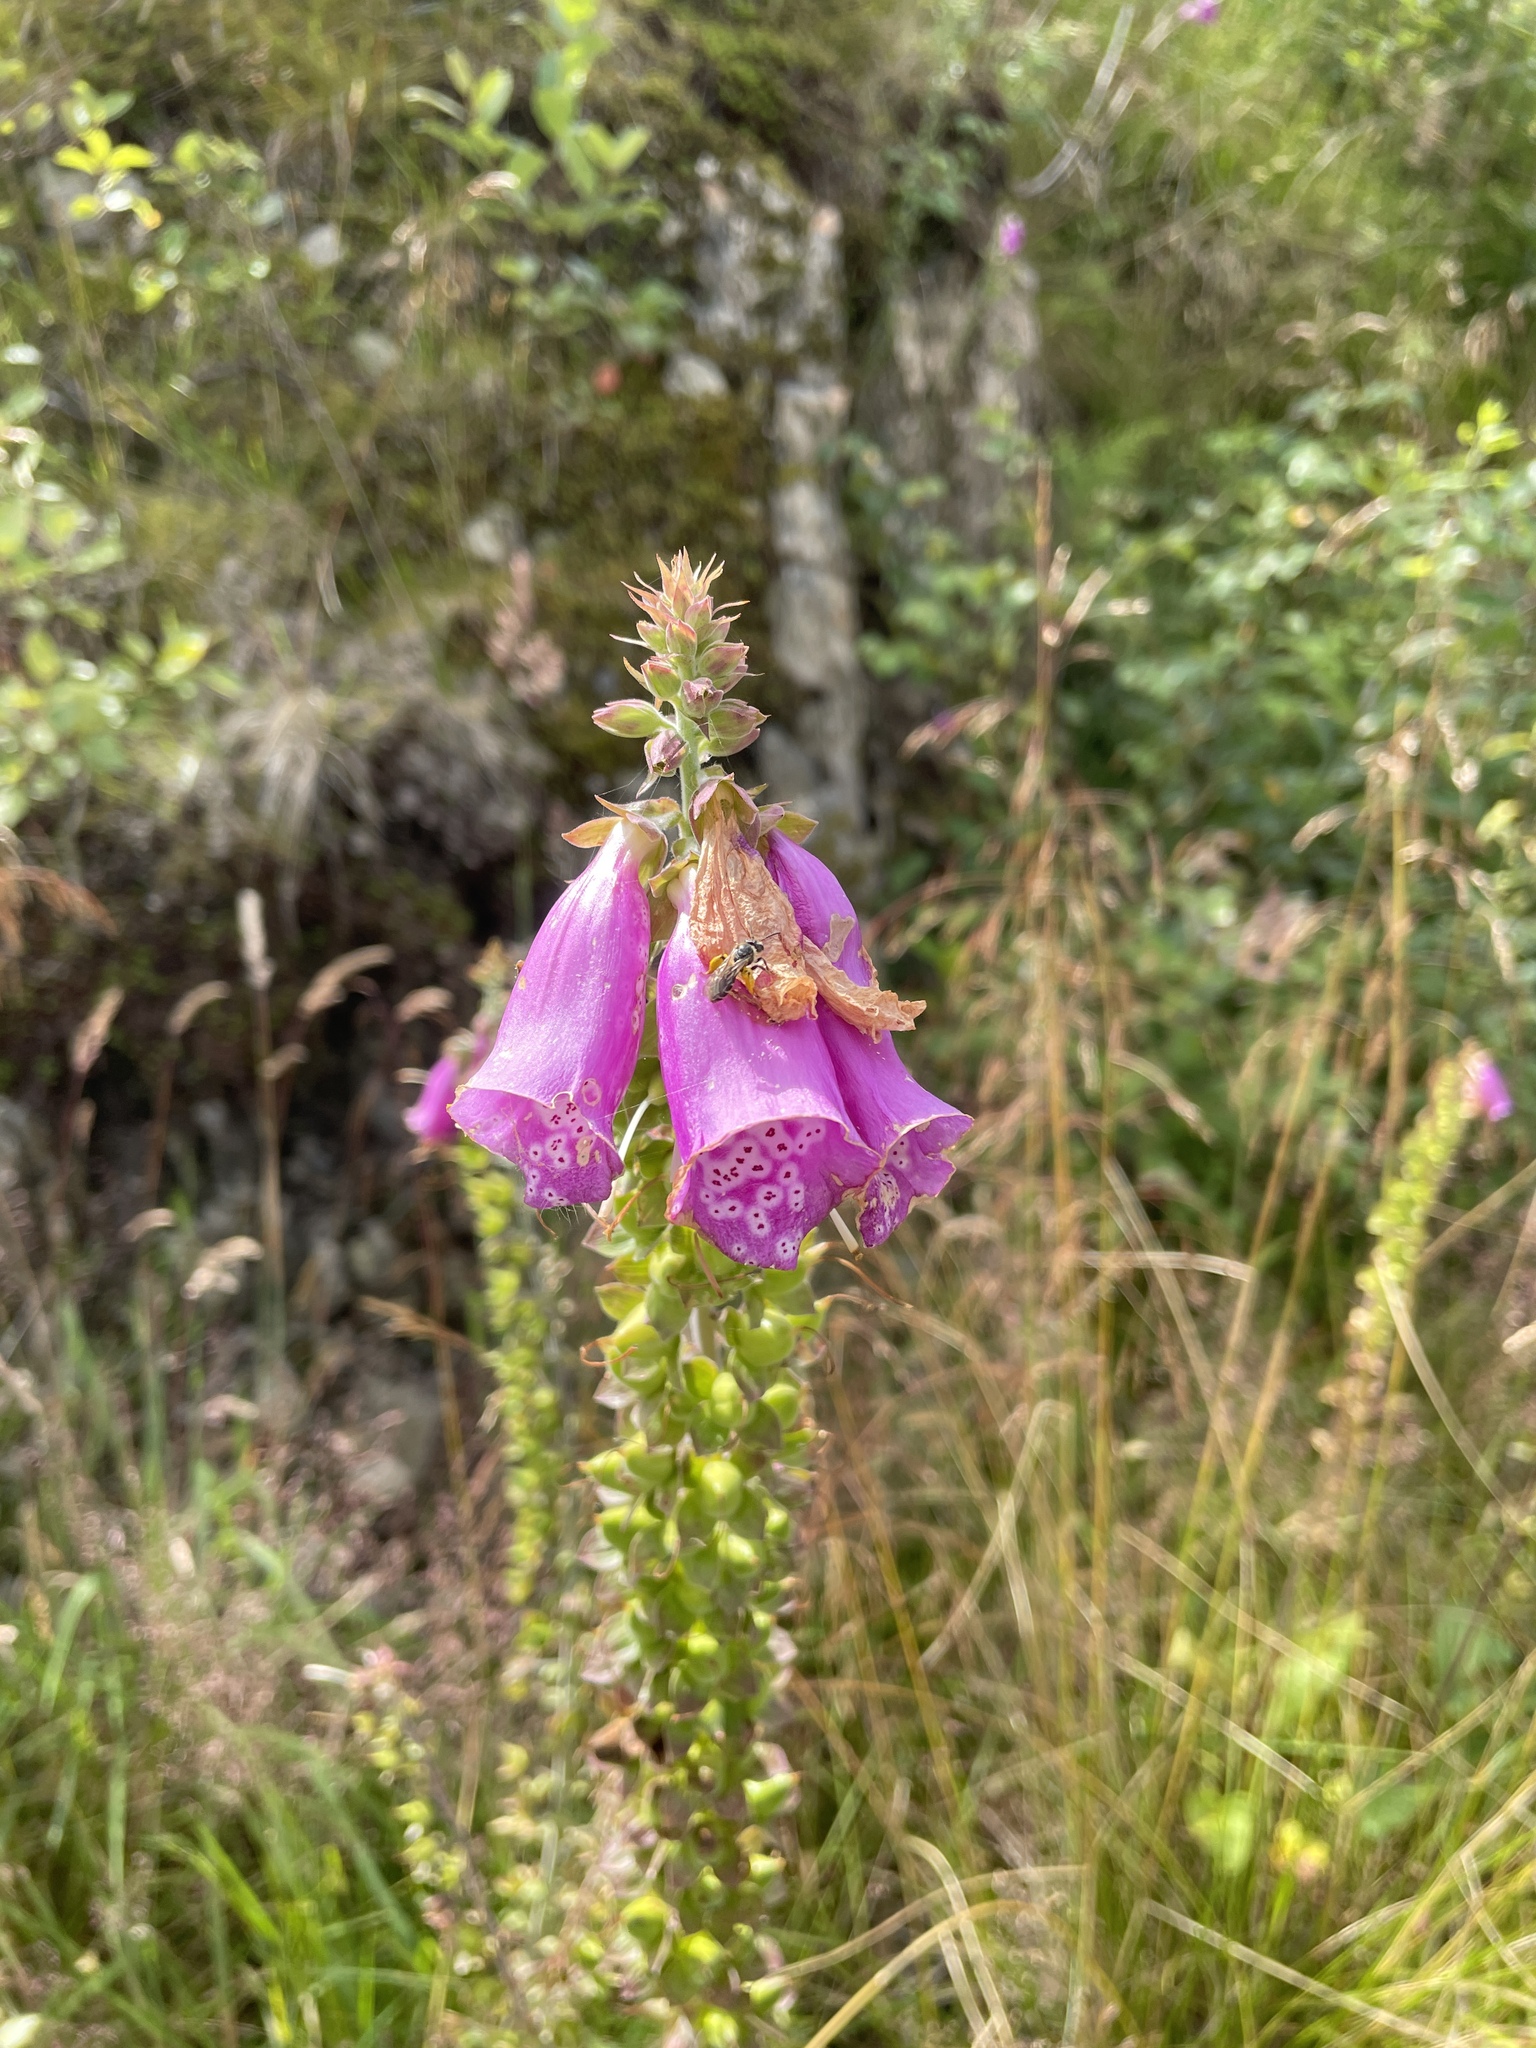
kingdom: Plantae
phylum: Tracheophyta
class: Magnoliopsida
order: Lamiales
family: Plantaginaceae
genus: Digitalis
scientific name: Digitalis purpurea
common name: Foxglove
